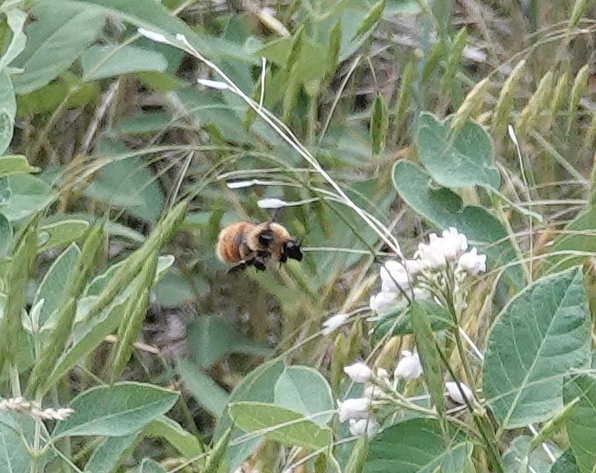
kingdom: Animalia
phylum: Arthropoda
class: Insecta
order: Hymenoptera
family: Apidae
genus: Bombus
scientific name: Bombus rufocinctus
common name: Red-belted bumble bee
